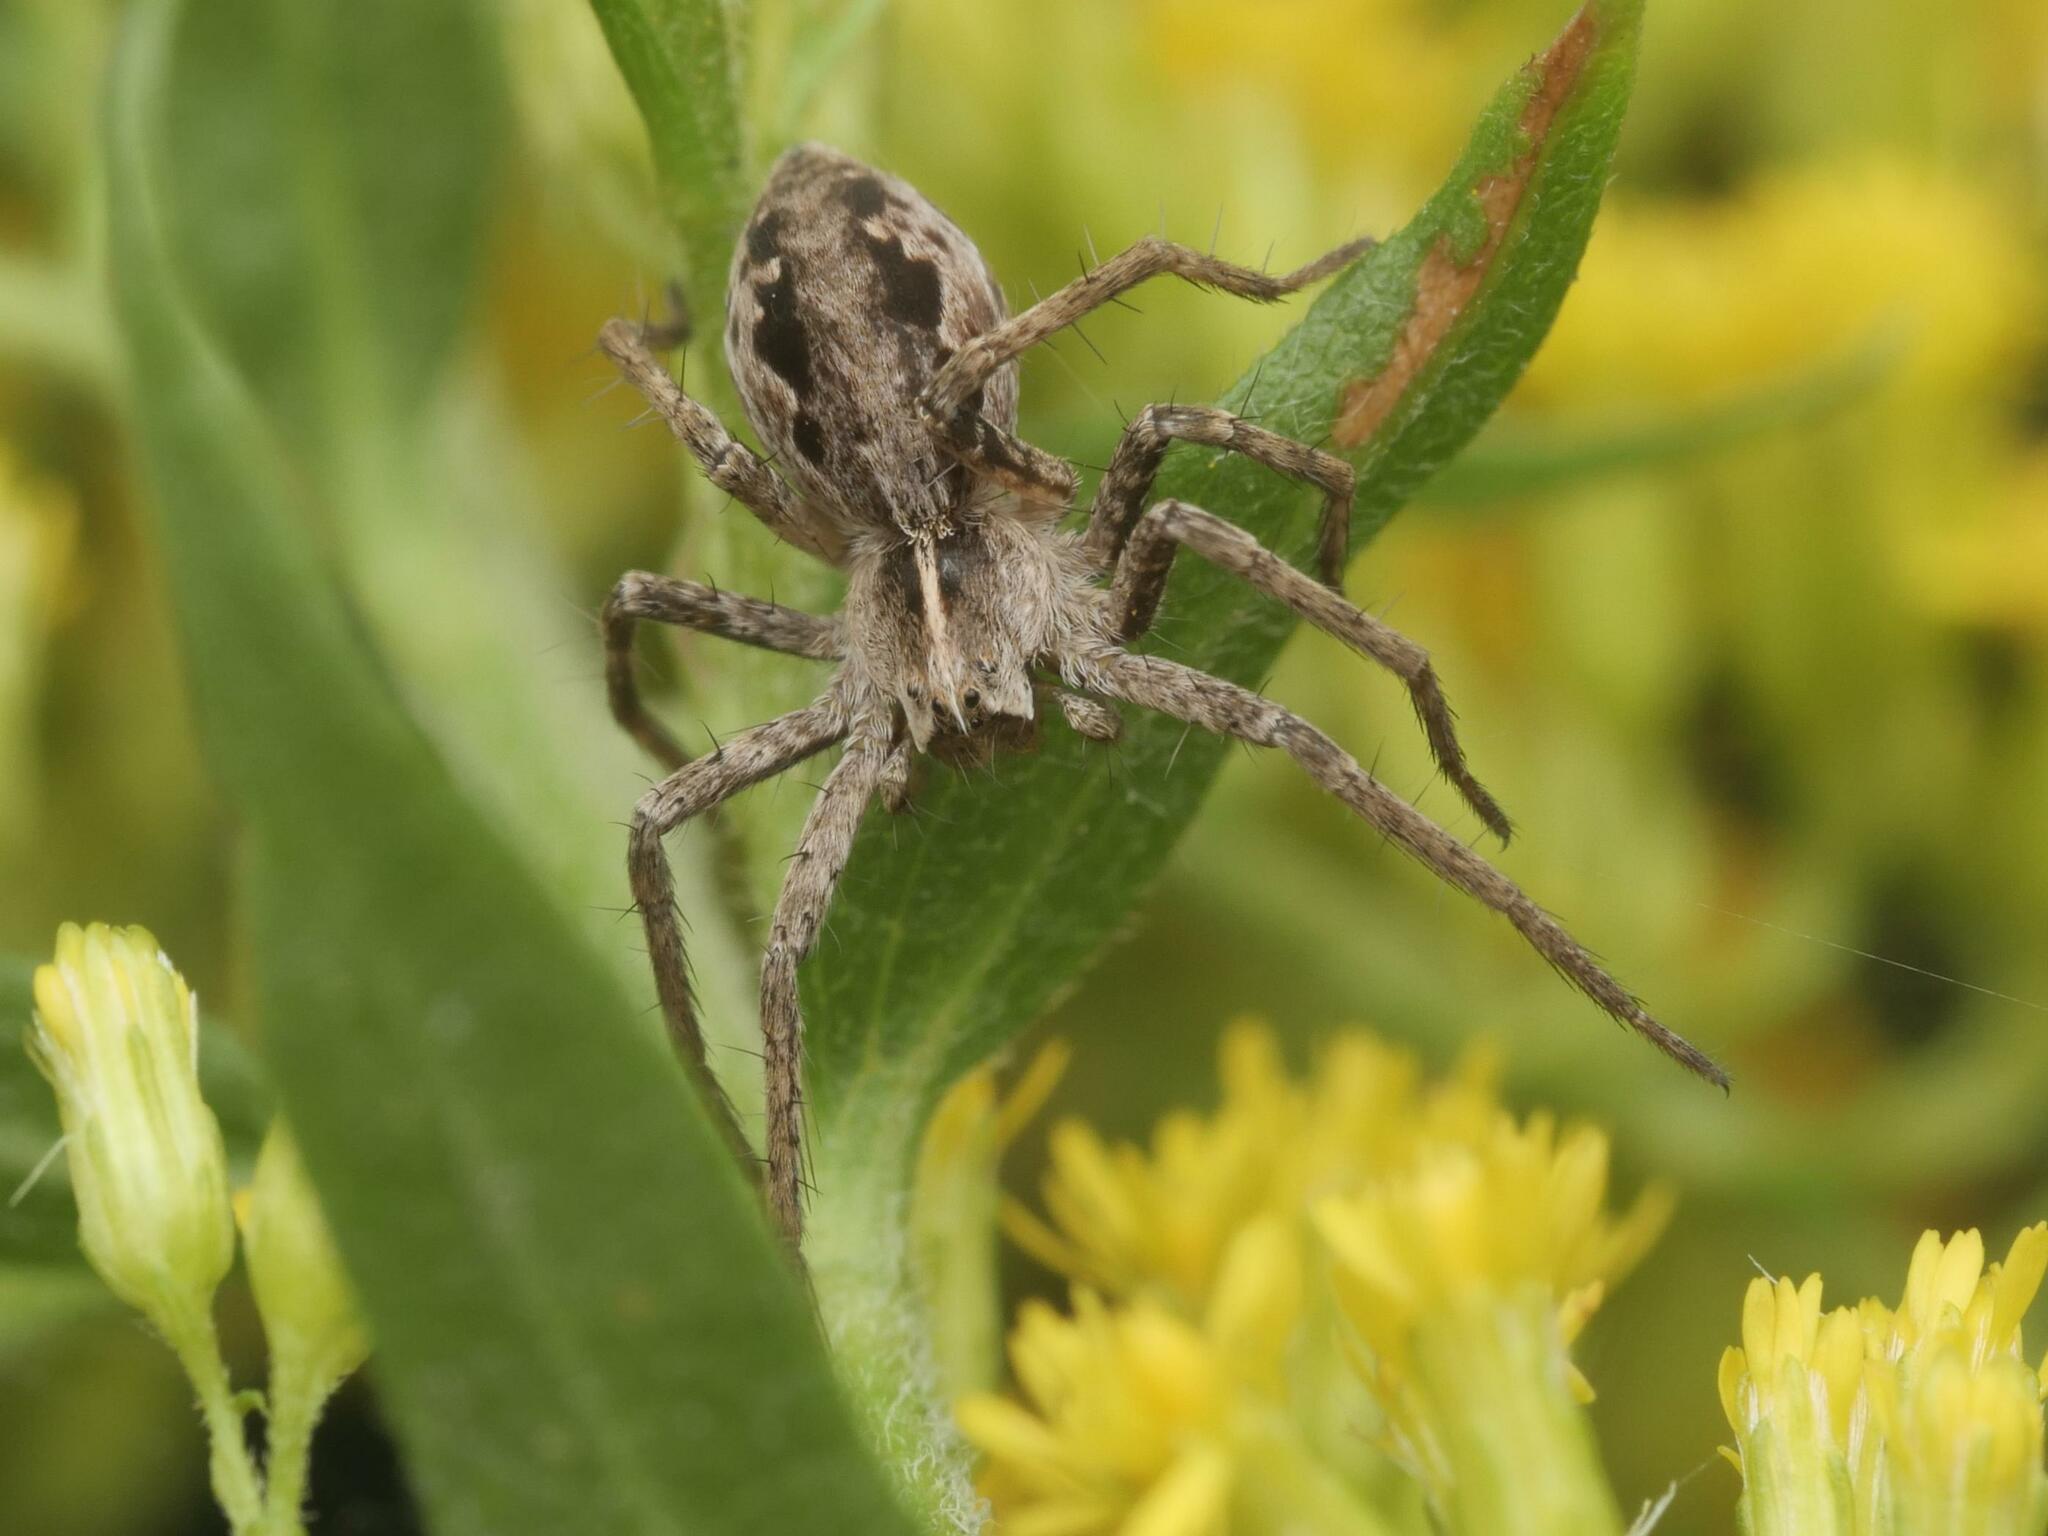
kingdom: Animalia
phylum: Arthropoda
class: Arachnida
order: Araneae
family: Pisauridae
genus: Pisaura
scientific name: Pisaura mirabilis
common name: Tent spider
